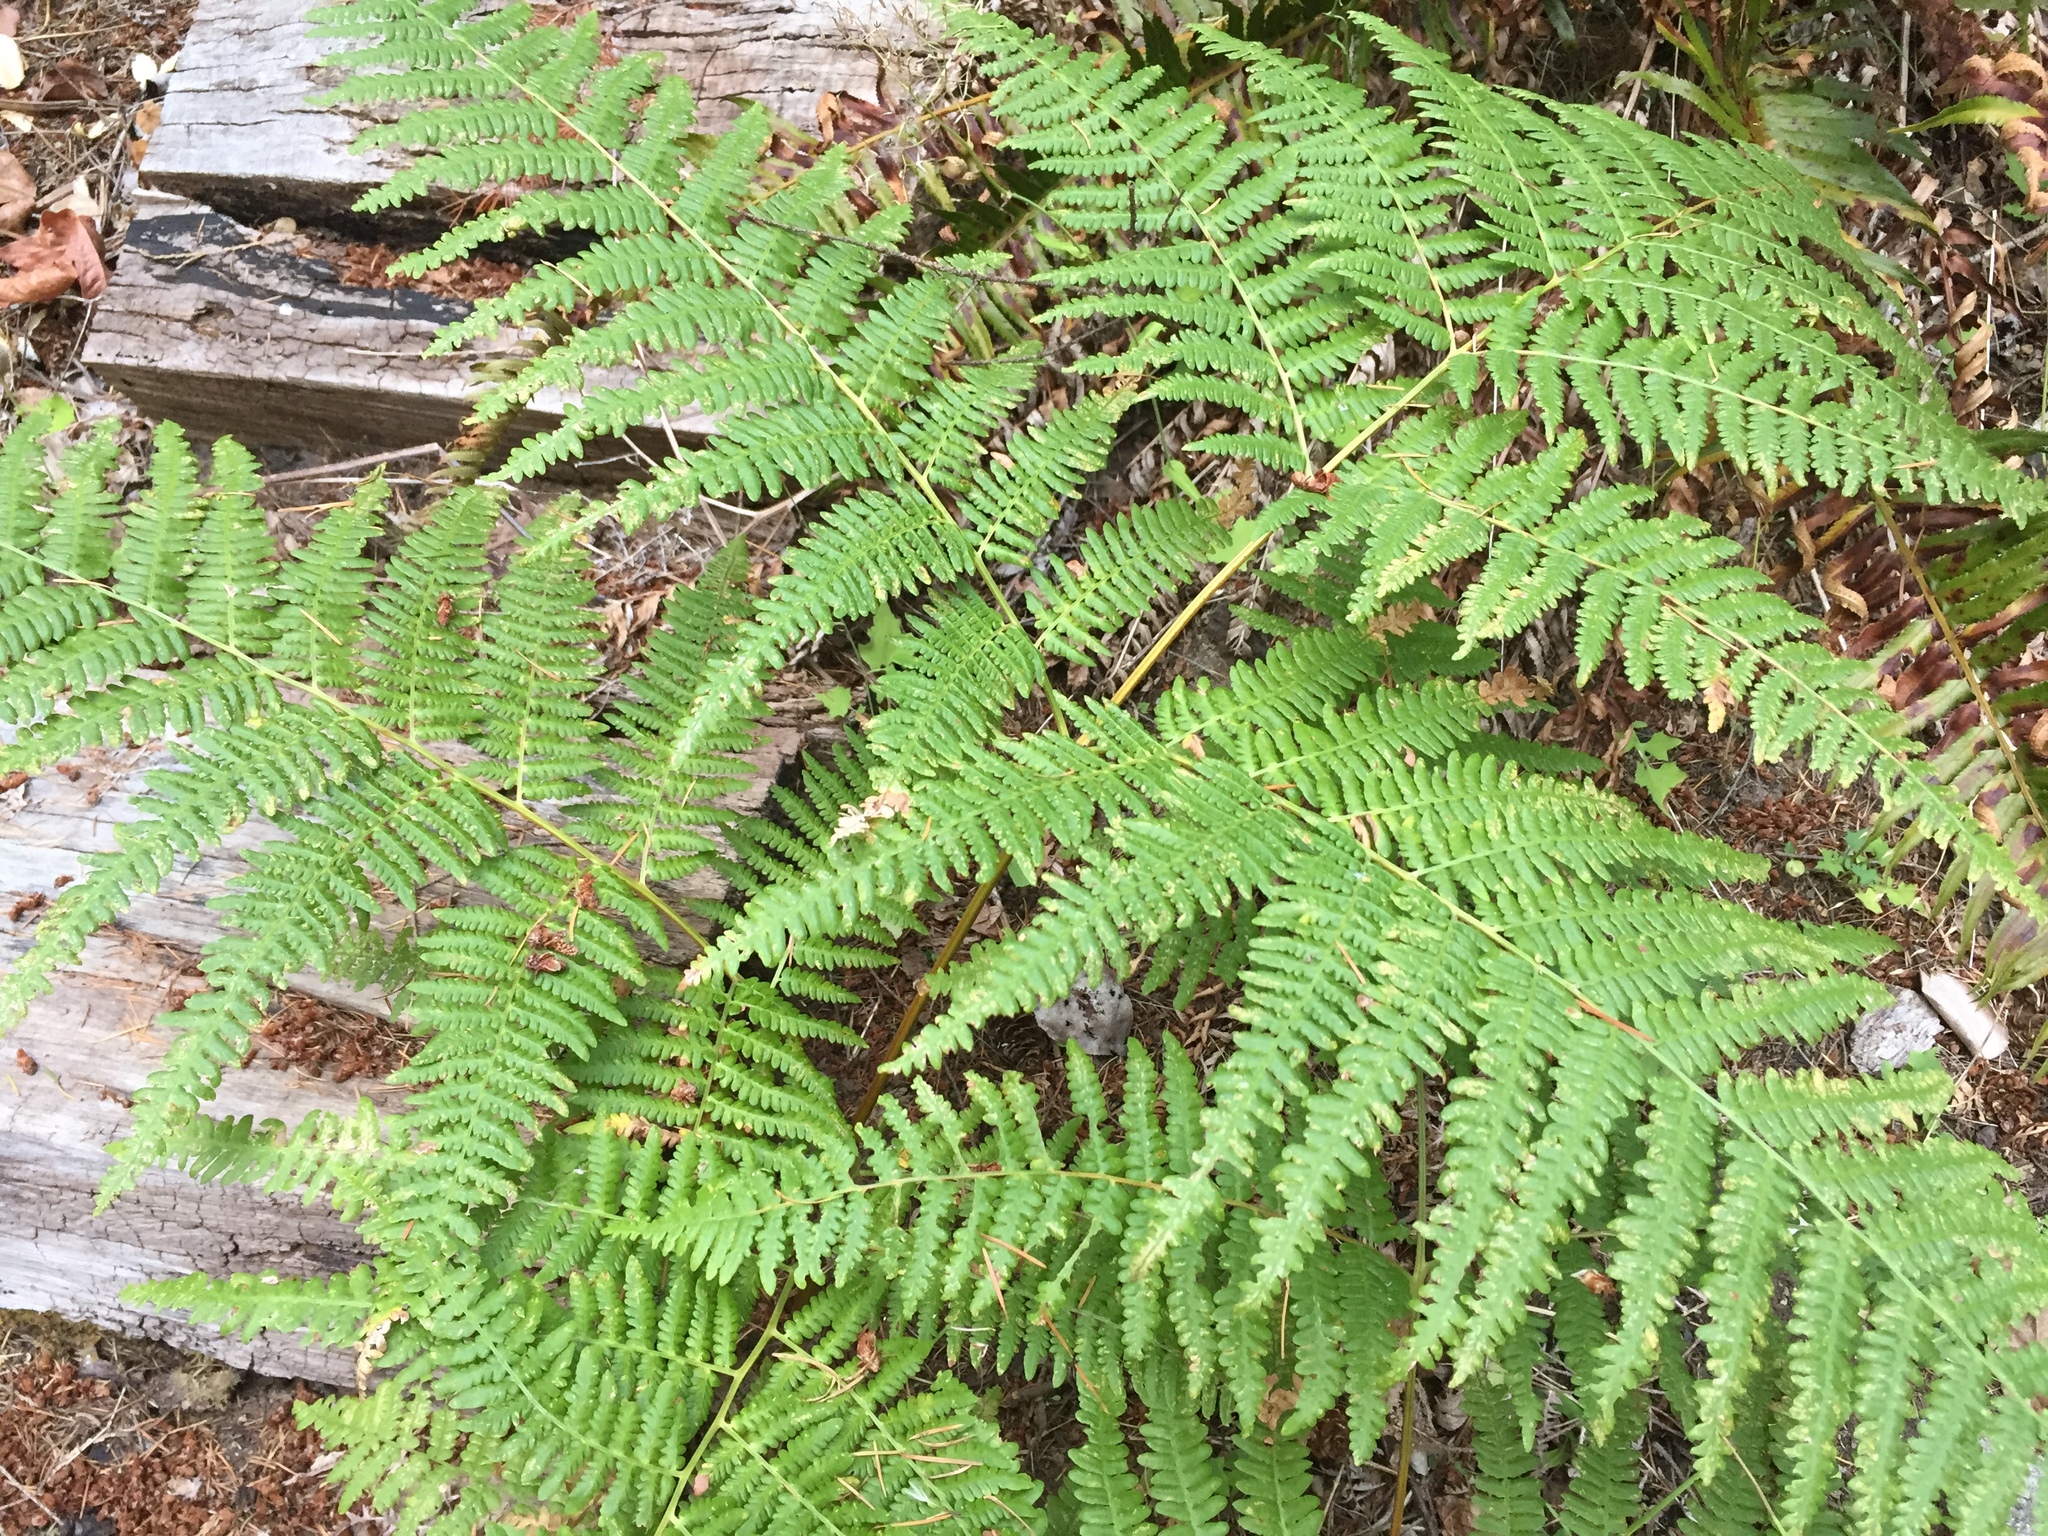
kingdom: Plantae
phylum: Tracheophyta
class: Polypodiopsida
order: Polypodiales
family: Dennstaedtiaceae
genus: Pteridium
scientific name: Pteridium aquilinum
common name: Bracken
